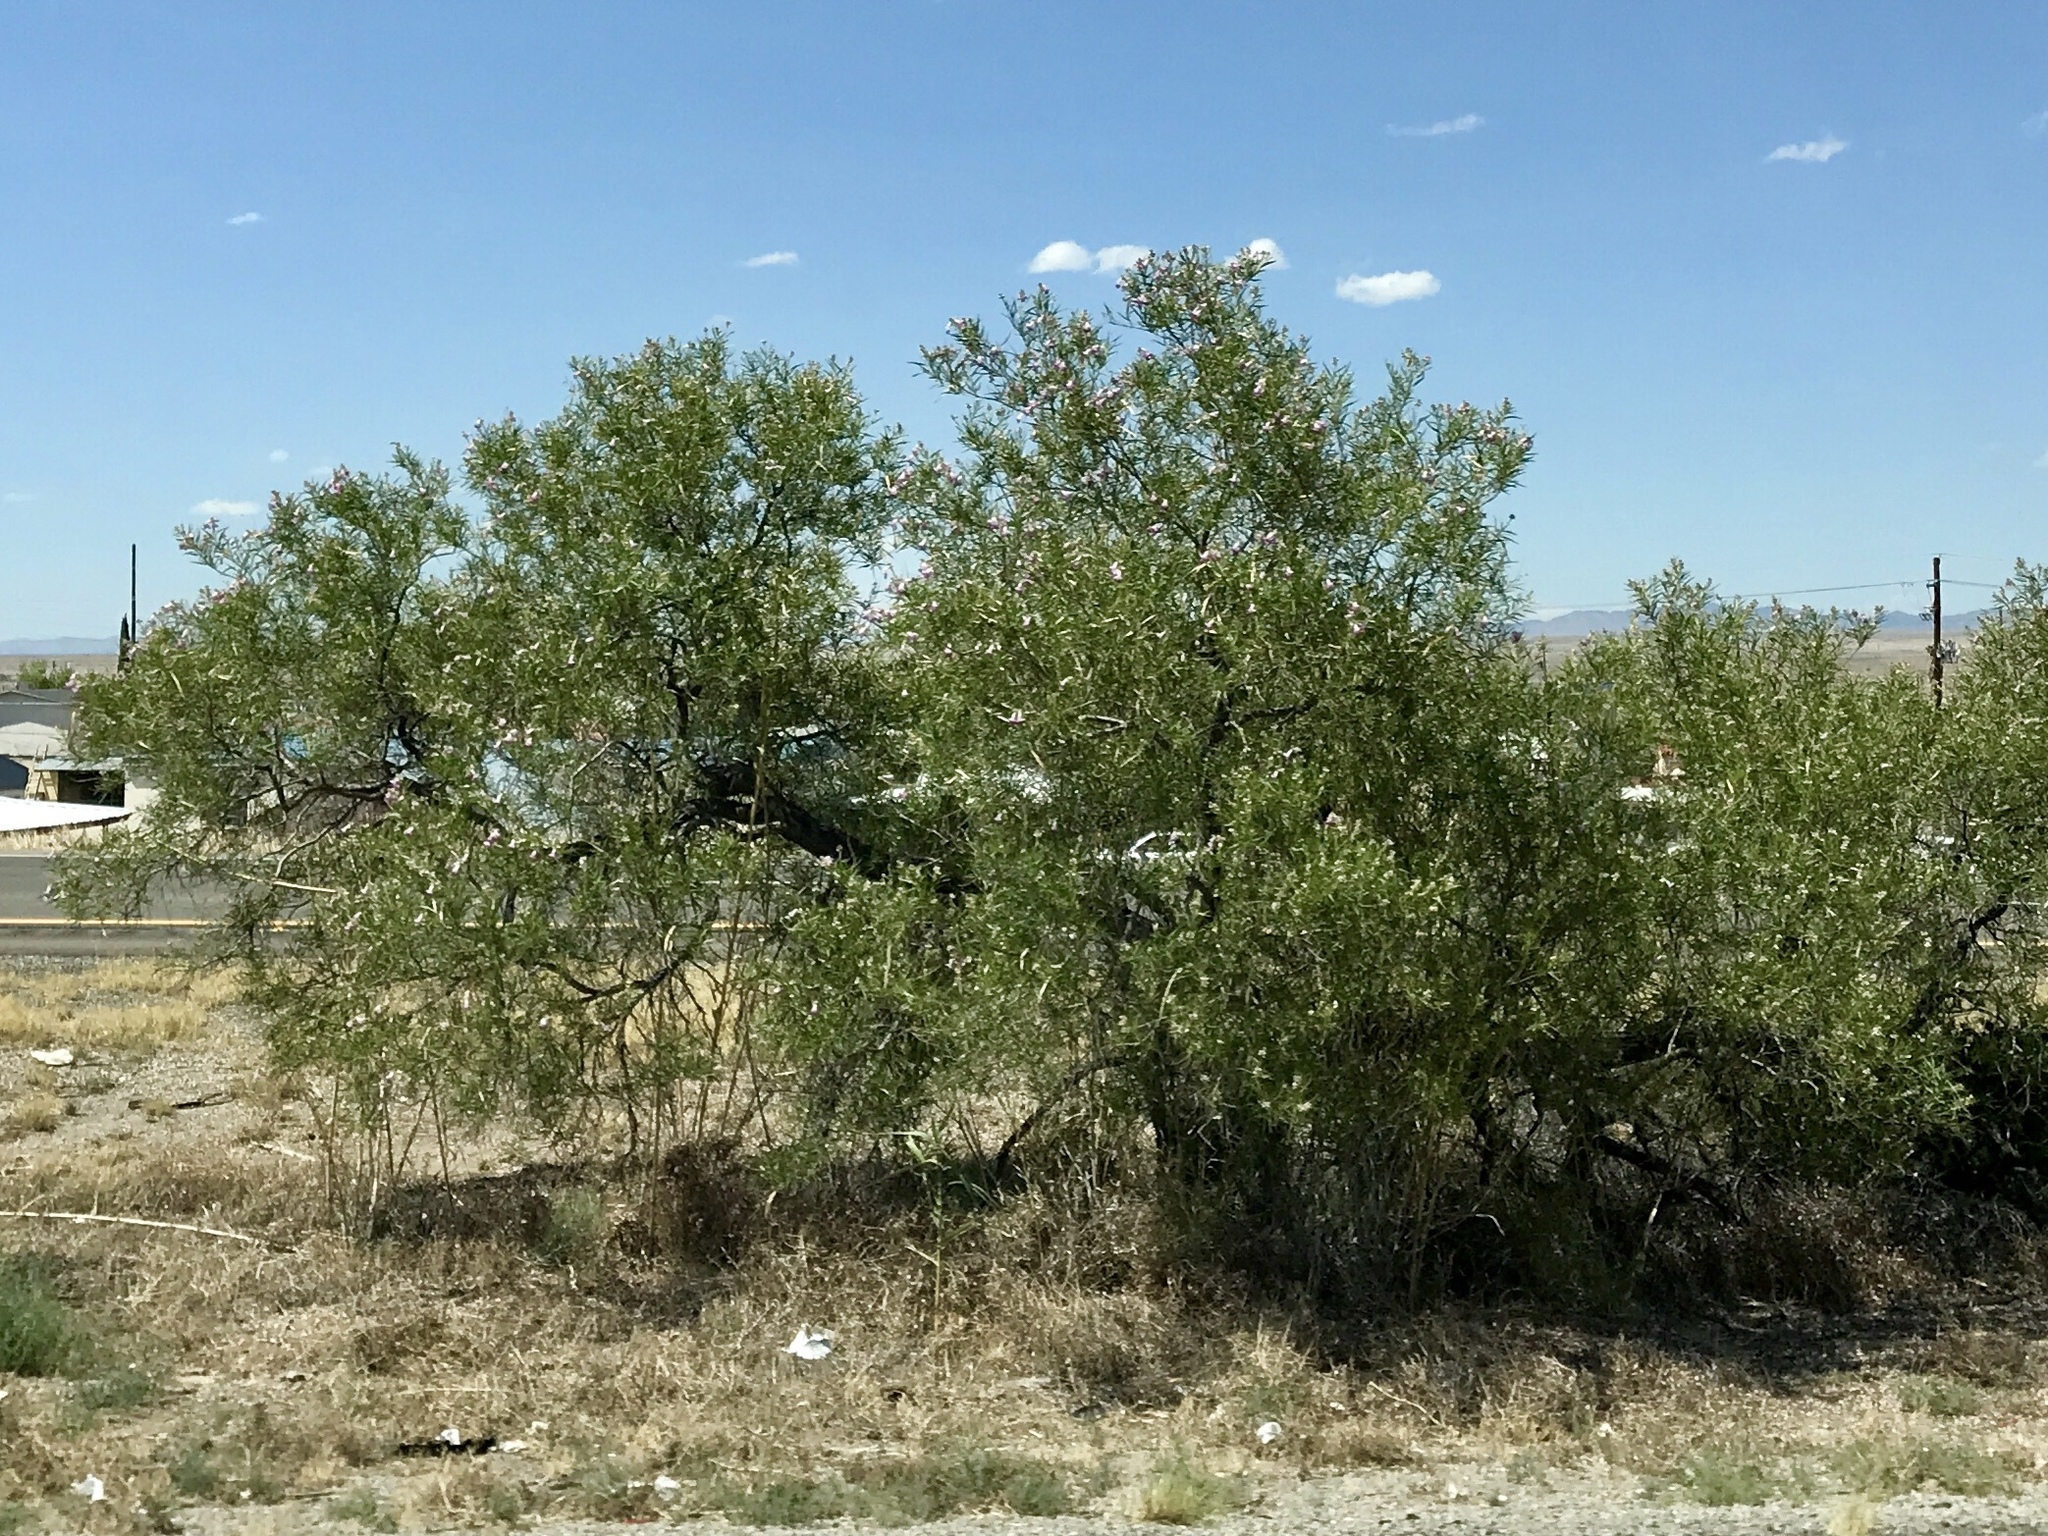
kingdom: Plantae
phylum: Tracheophyta
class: Magnoliopsida
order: Lamiales
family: Bignoniaceae
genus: Chilopsis
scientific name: Chilopsis linearis
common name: Desert-willow
